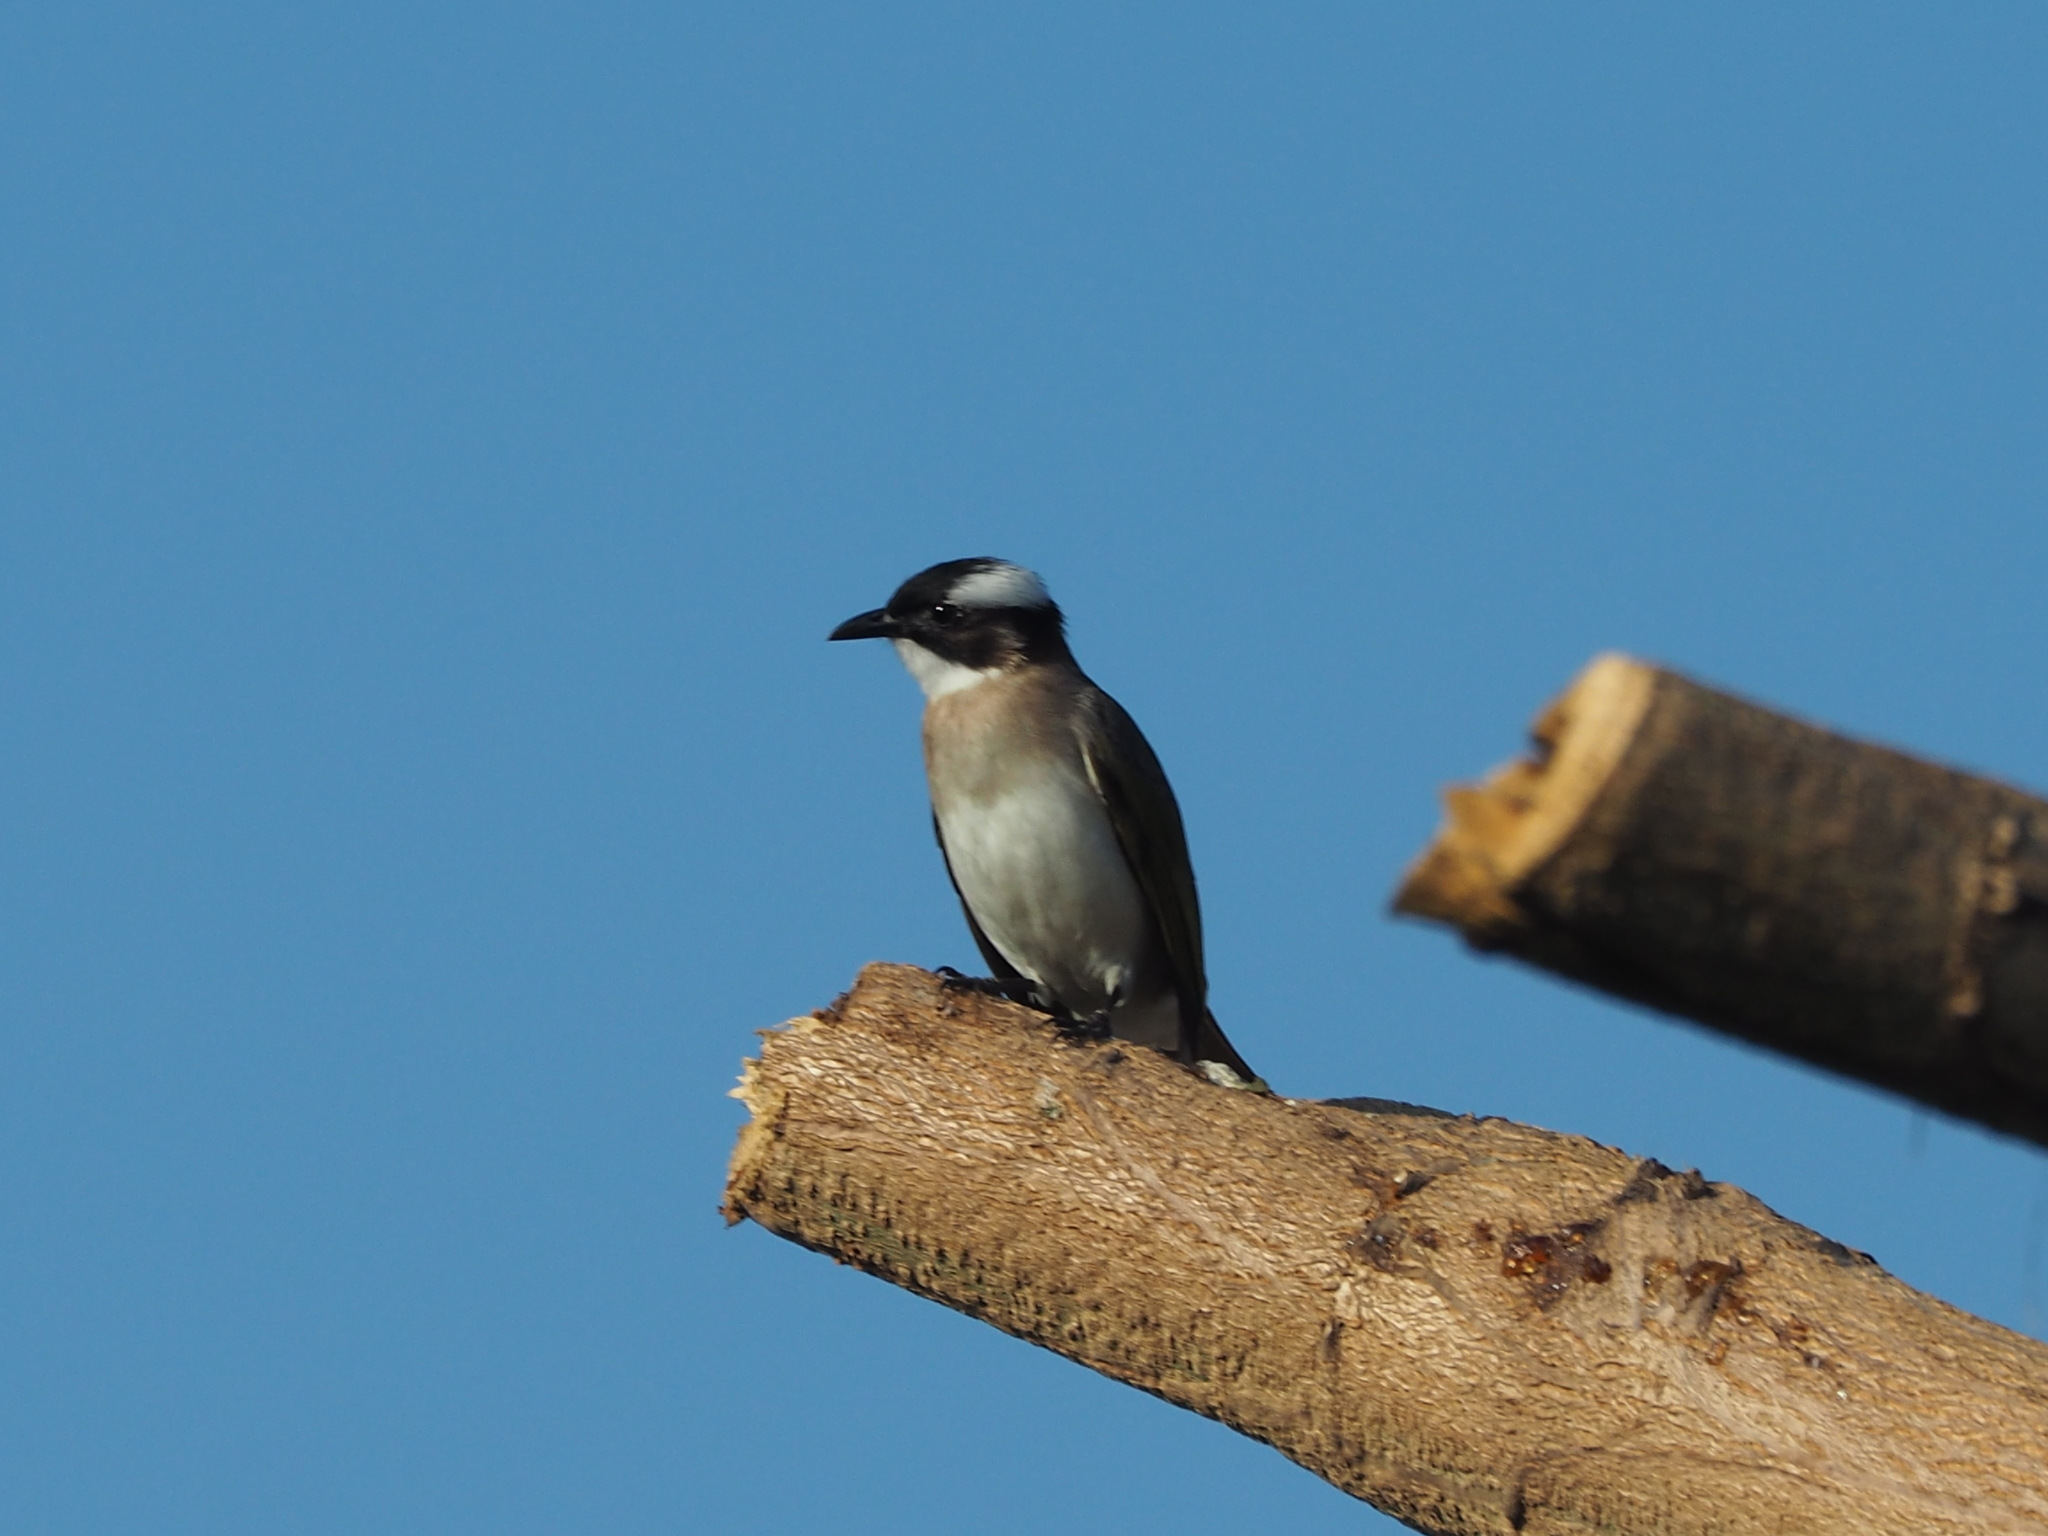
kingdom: Animalia
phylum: Chordata
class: Aves
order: Passeriformes
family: Pycnonotidae
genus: Pycnonotus
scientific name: Pycnonotus sinensis
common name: Light-vented bulbul
